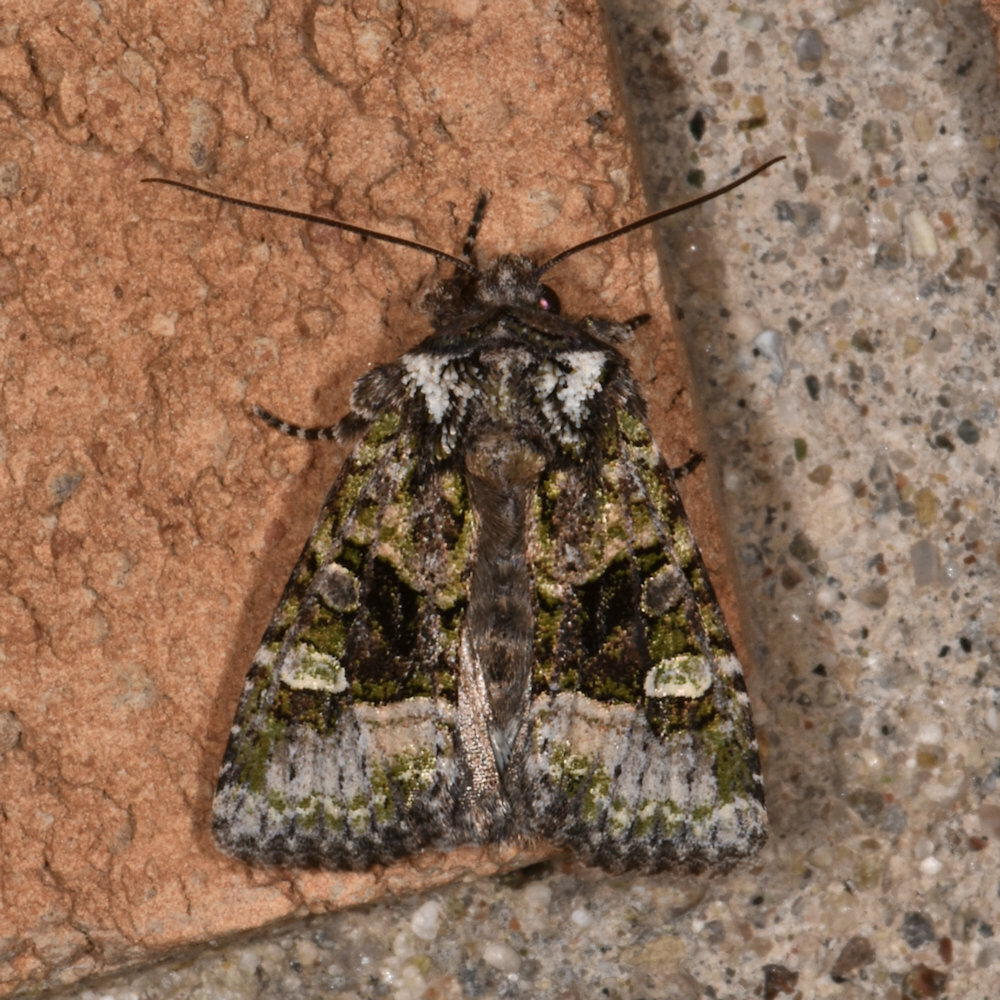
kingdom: Animalia
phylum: Arthropoda
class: Insecta
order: Lepidoptera
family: Noctuidae
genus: Lacinipolia
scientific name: Lacinipolia olivacea
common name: Olive arches moth
